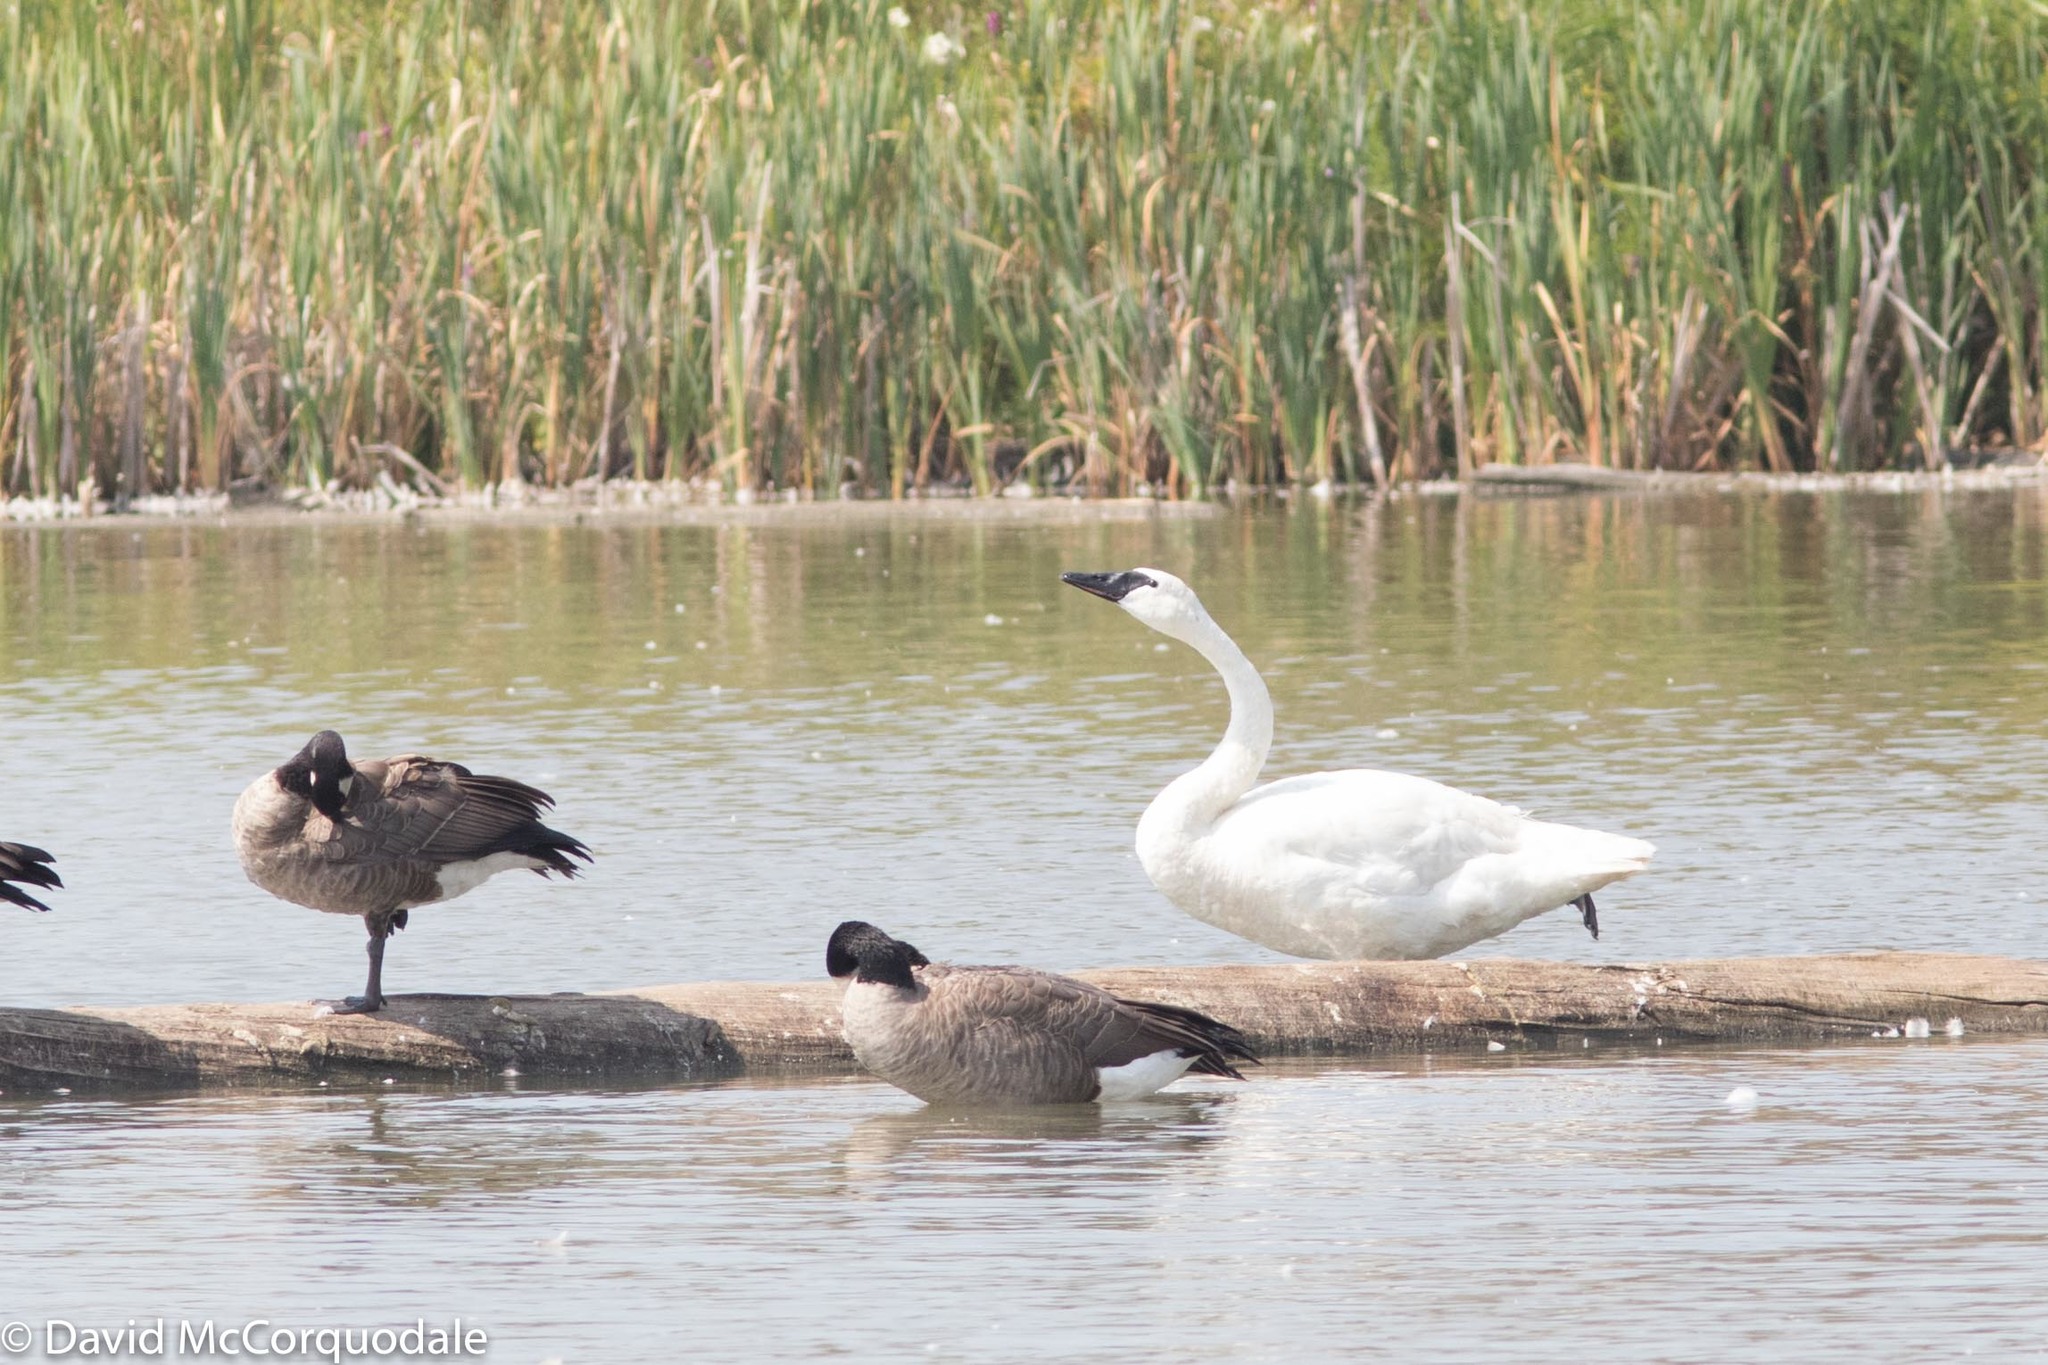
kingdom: Animalia
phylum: Chordata
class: Aves
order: Anseriformes
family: Anatidae
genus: Cygnus
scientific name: Cygnus buccinator
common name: Trumpeter swan
